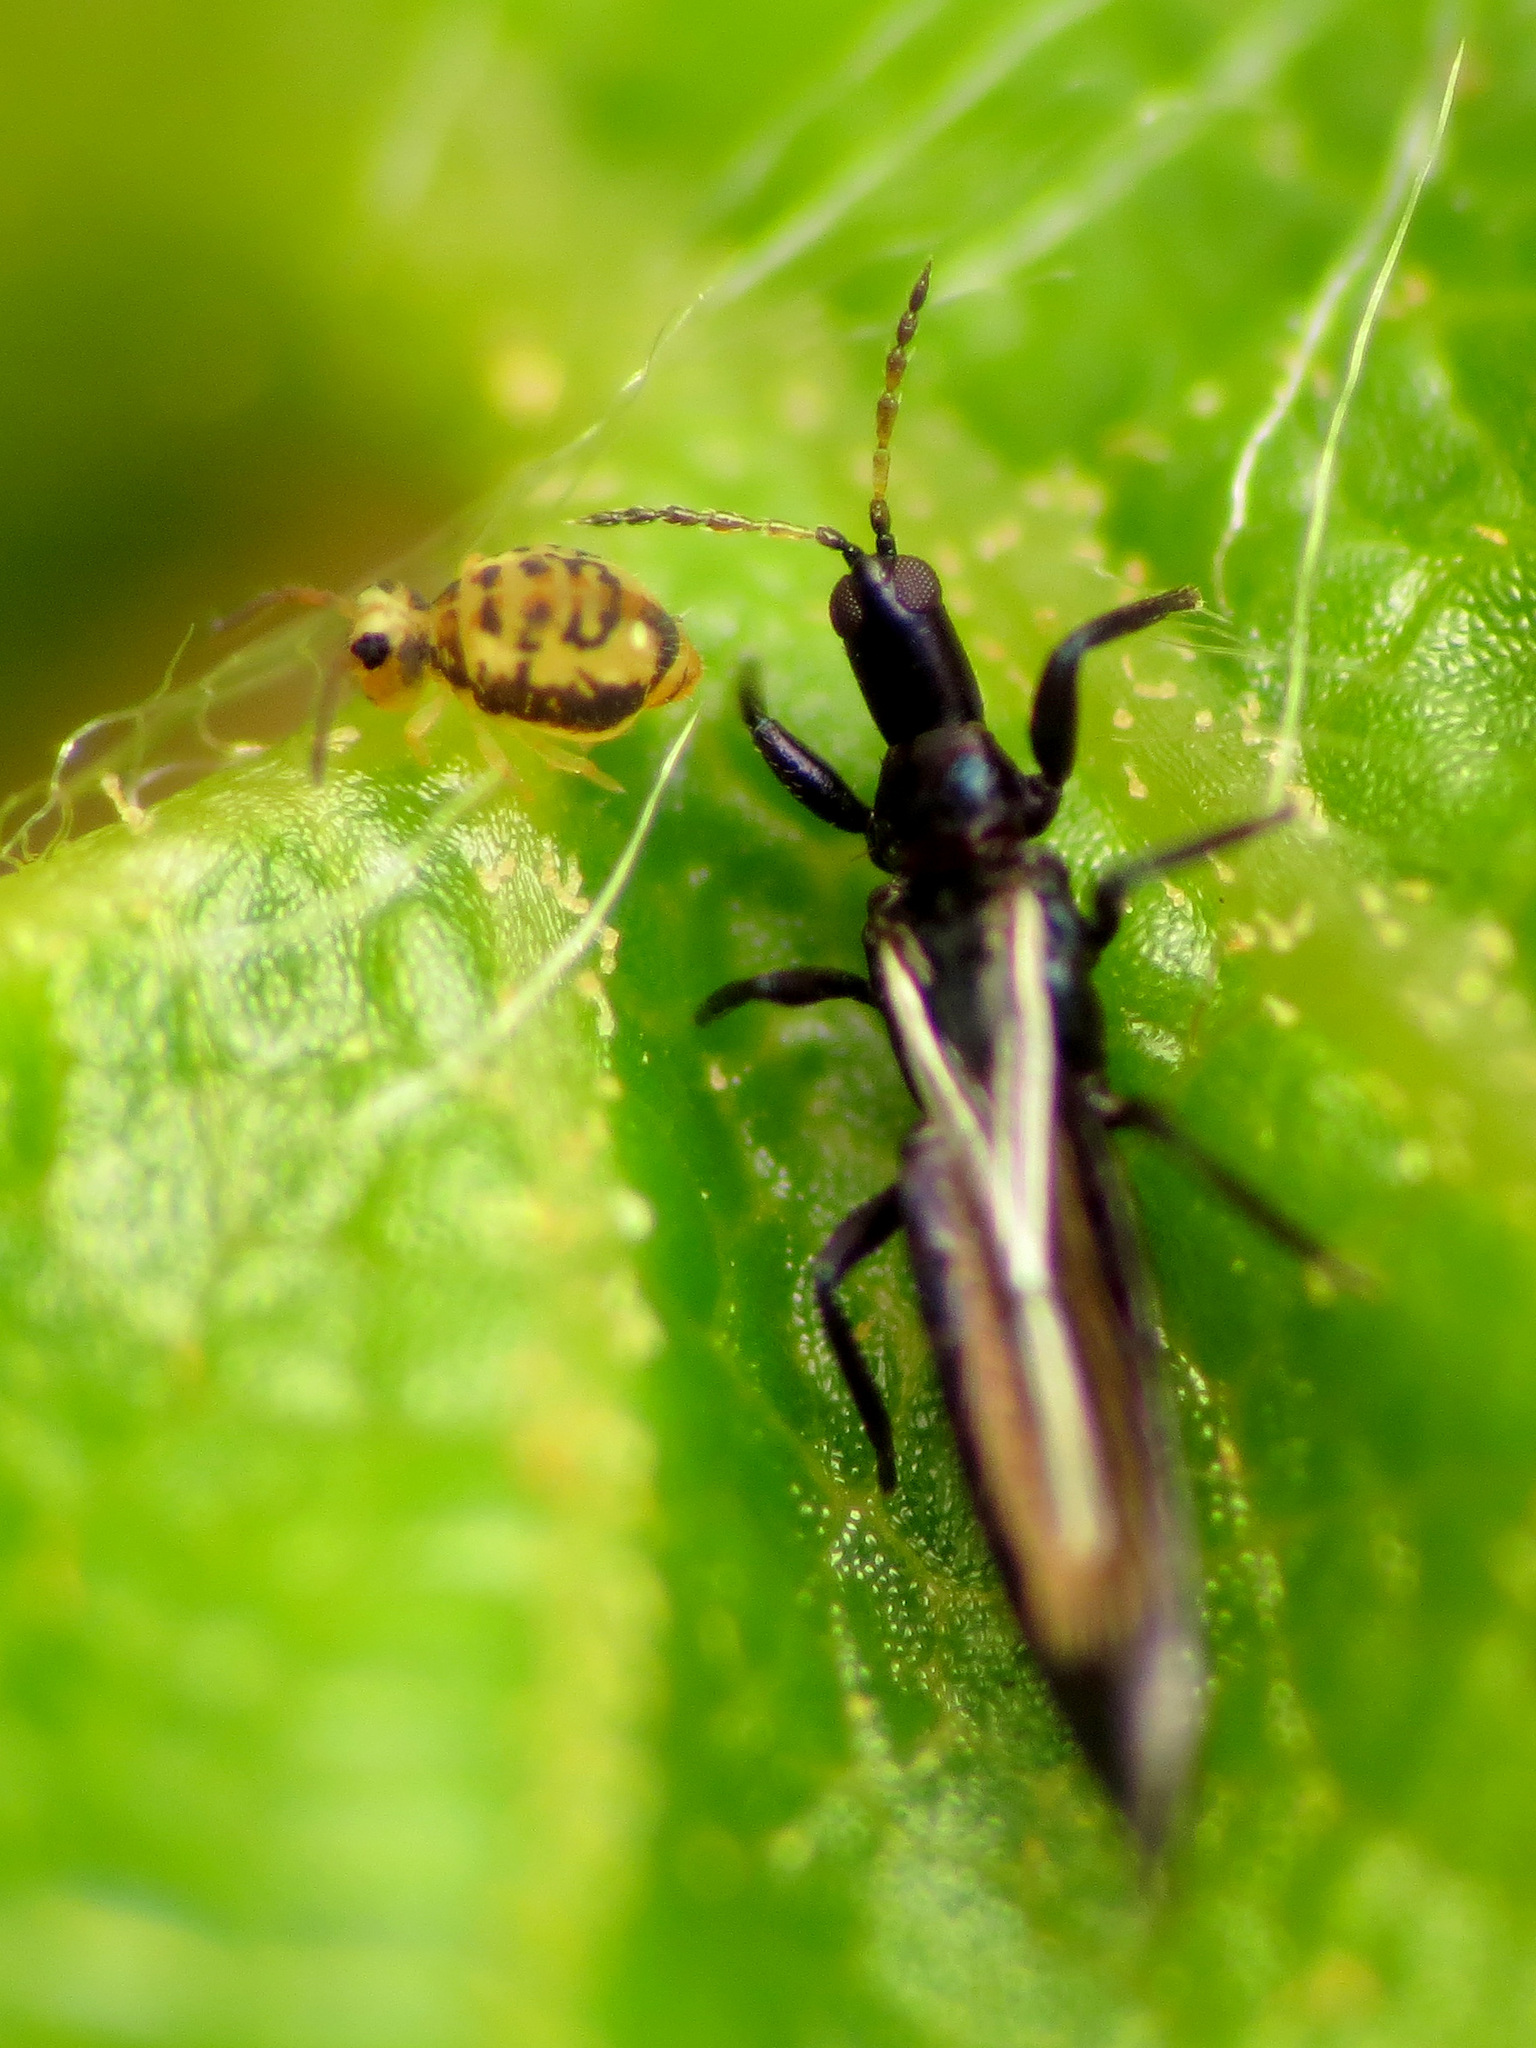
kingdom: Animalia
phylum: Arthropoda
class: Collembola
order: Symphypleona
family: Katiannidae
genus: Sminthurinus
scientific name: Sminthurinus henshawi
